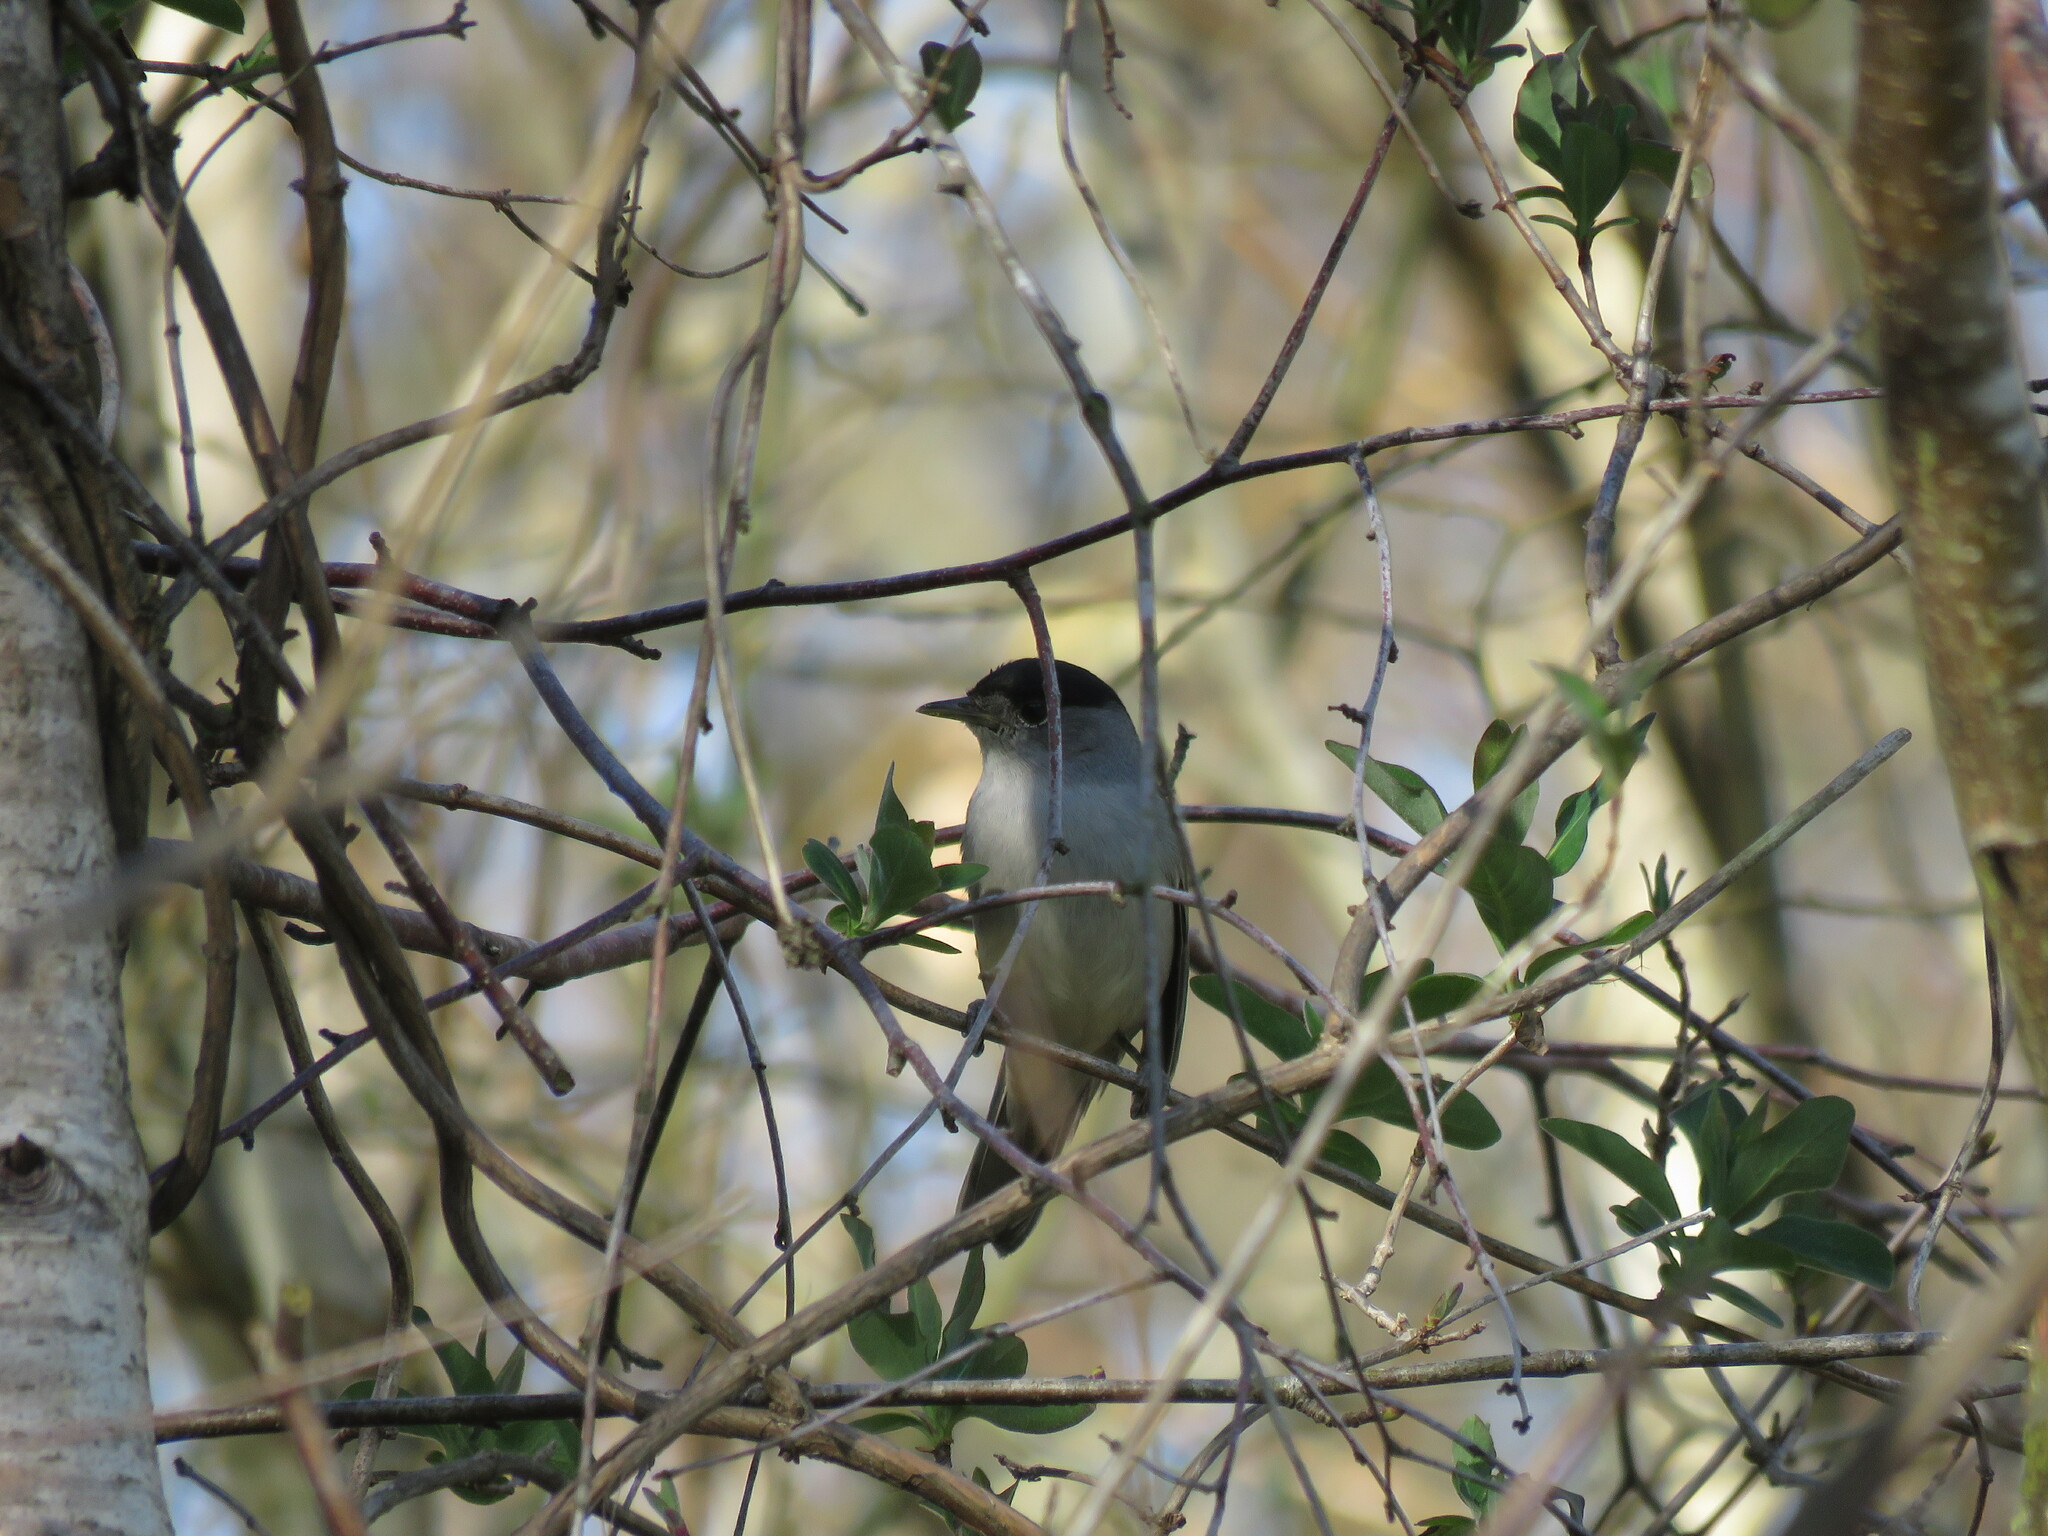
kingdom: Animalia
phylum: Chordata
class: Aves
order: Passeriformes
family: Sylviidae
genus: Sylvia
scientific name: Sylvia atricapilla
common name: Eurasian blackcap
